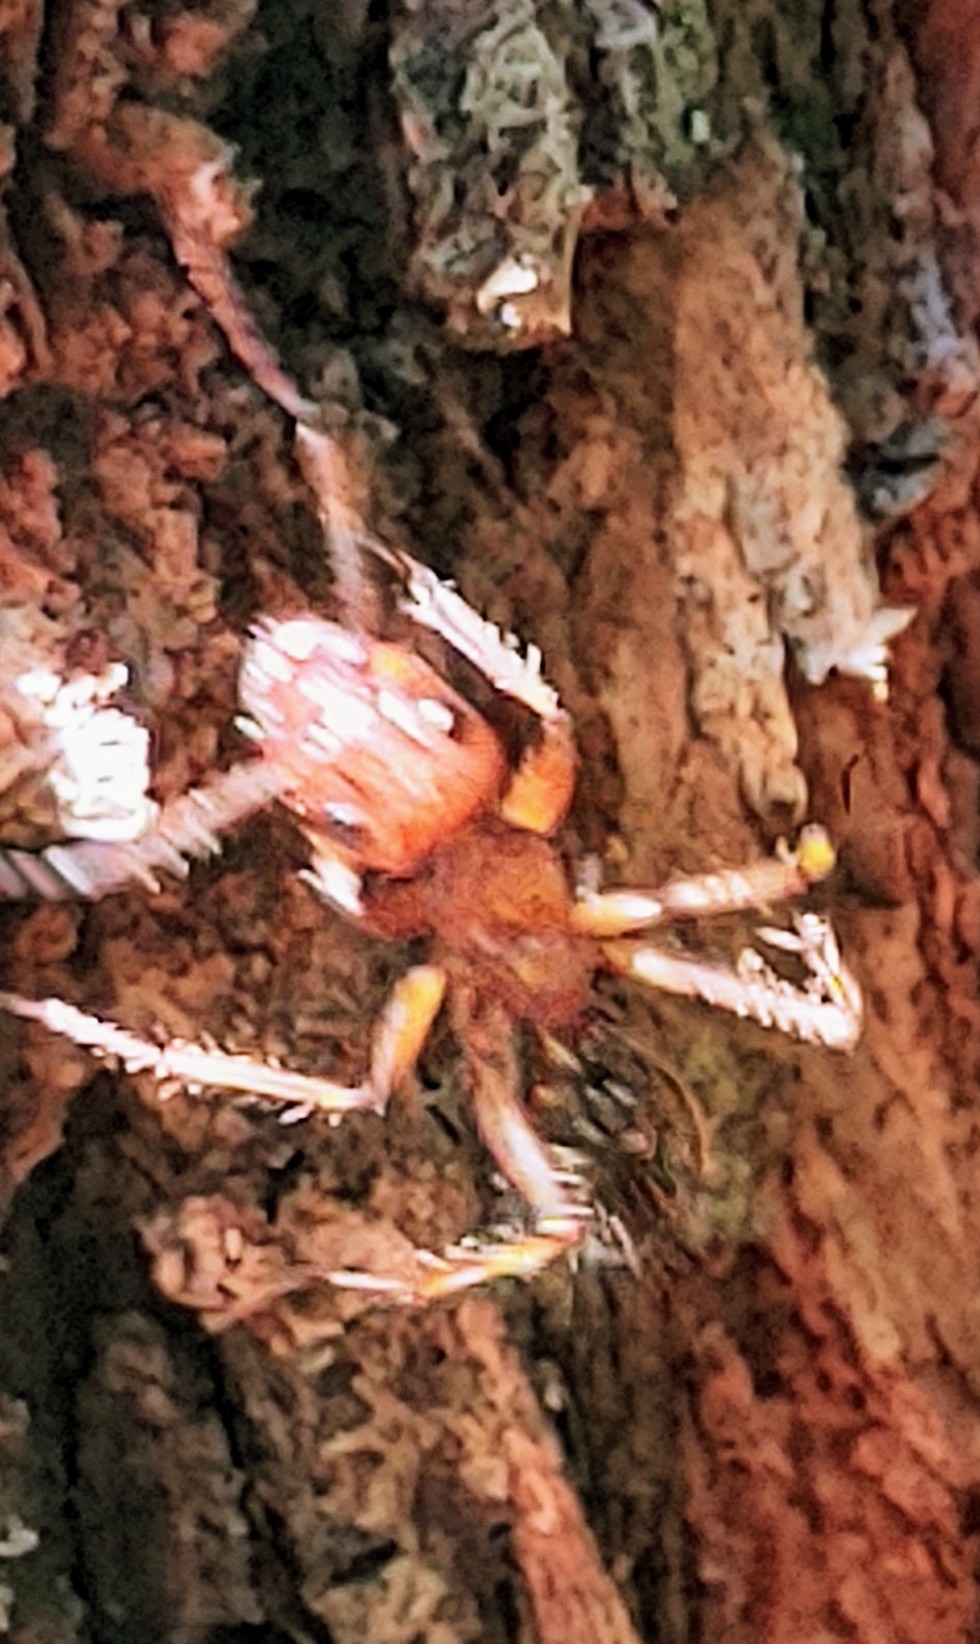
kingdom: Animalia
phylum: Arthropoda
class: Insecta
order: Hymenoptera
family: Formicidae
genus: Camponotus
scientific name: Camponotus floridanus
